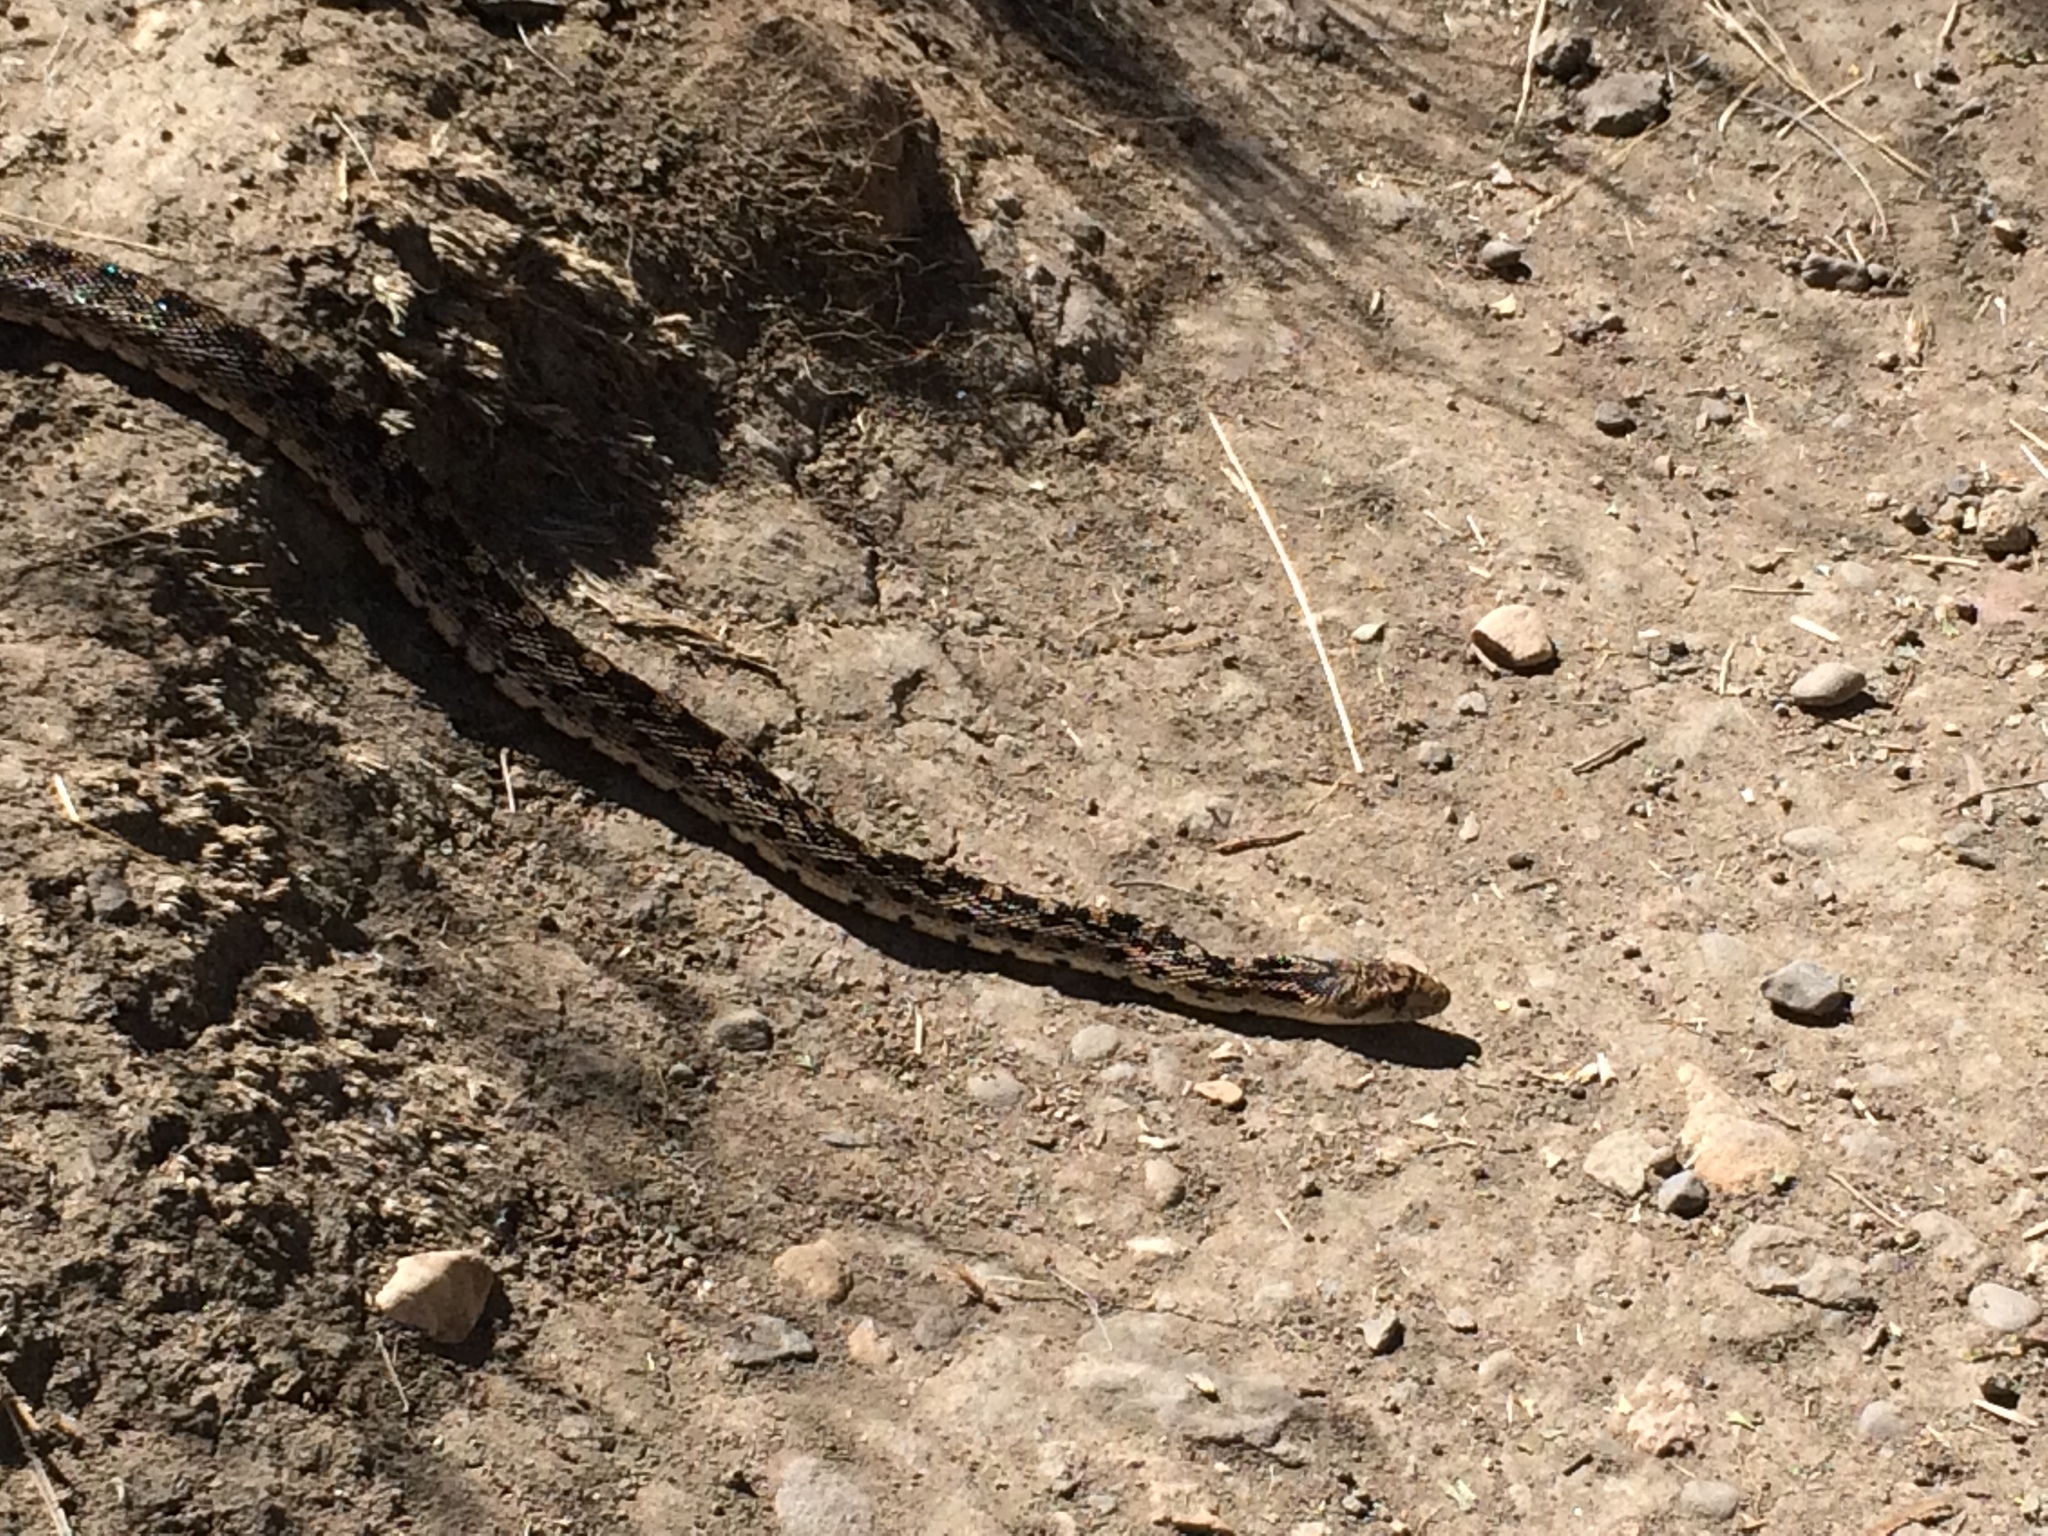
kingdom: Animalia
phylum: Chordata
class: Squamata
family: Colubridae
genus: Pituophis
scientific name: Pituophis catenifer
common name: Gopher snake
